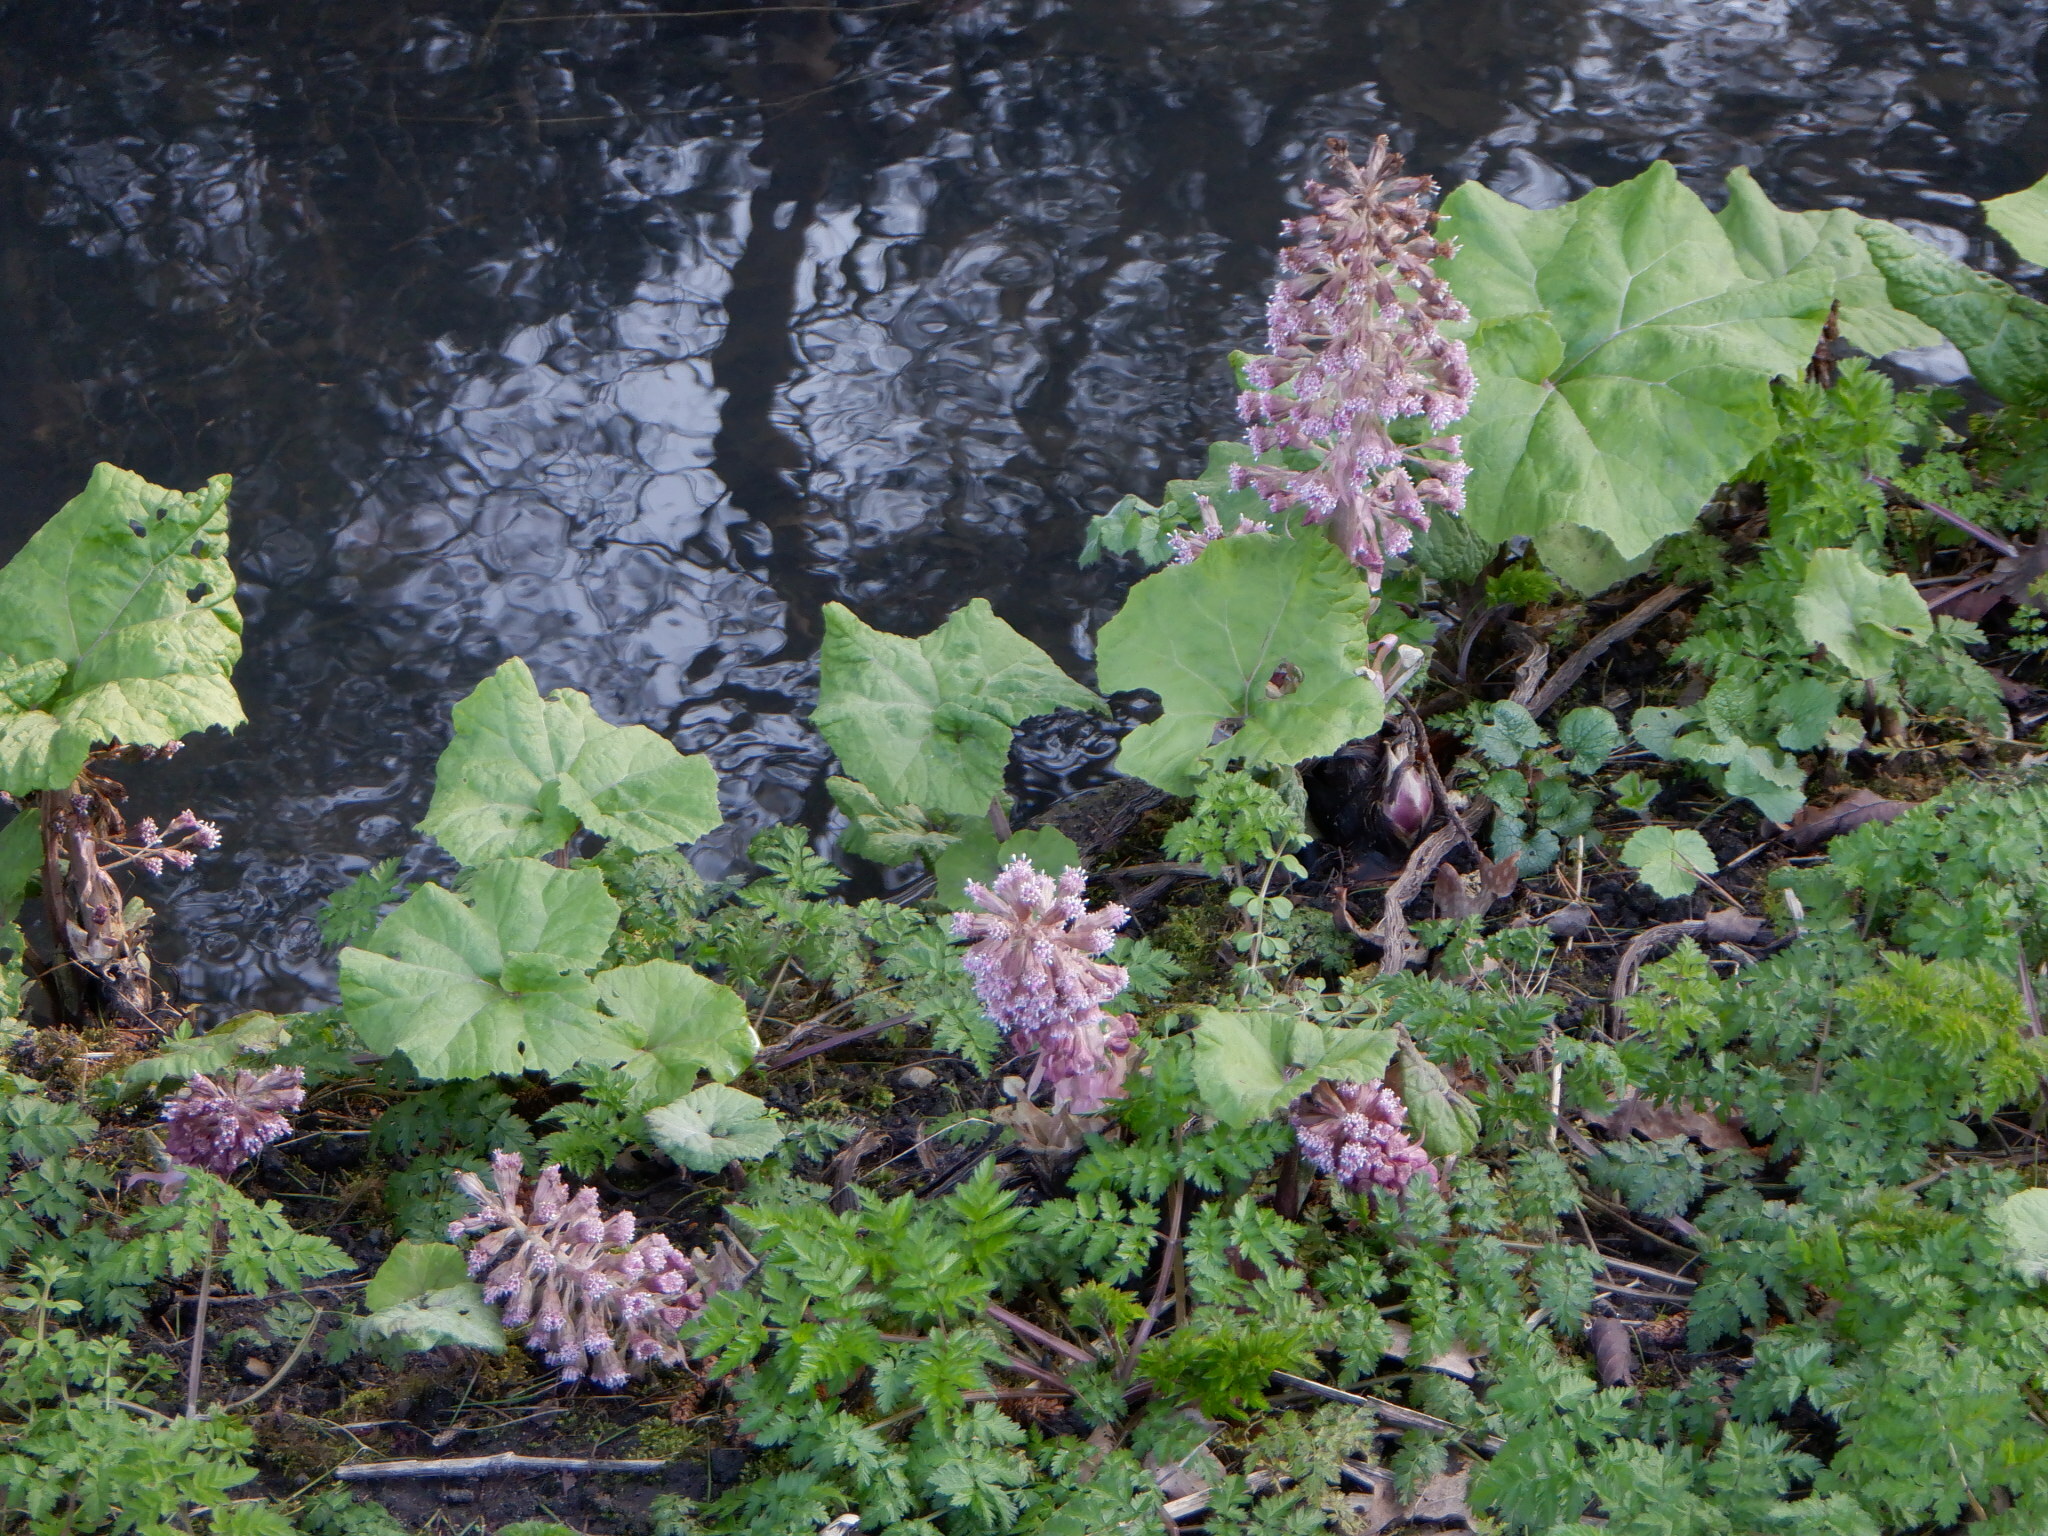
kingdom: Plantae
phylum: Tracheophyta
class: Magnoliopsida
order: Asterales
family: Asteraceae
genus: Petasites
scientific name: Petasites hybridus
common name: Butterbur
